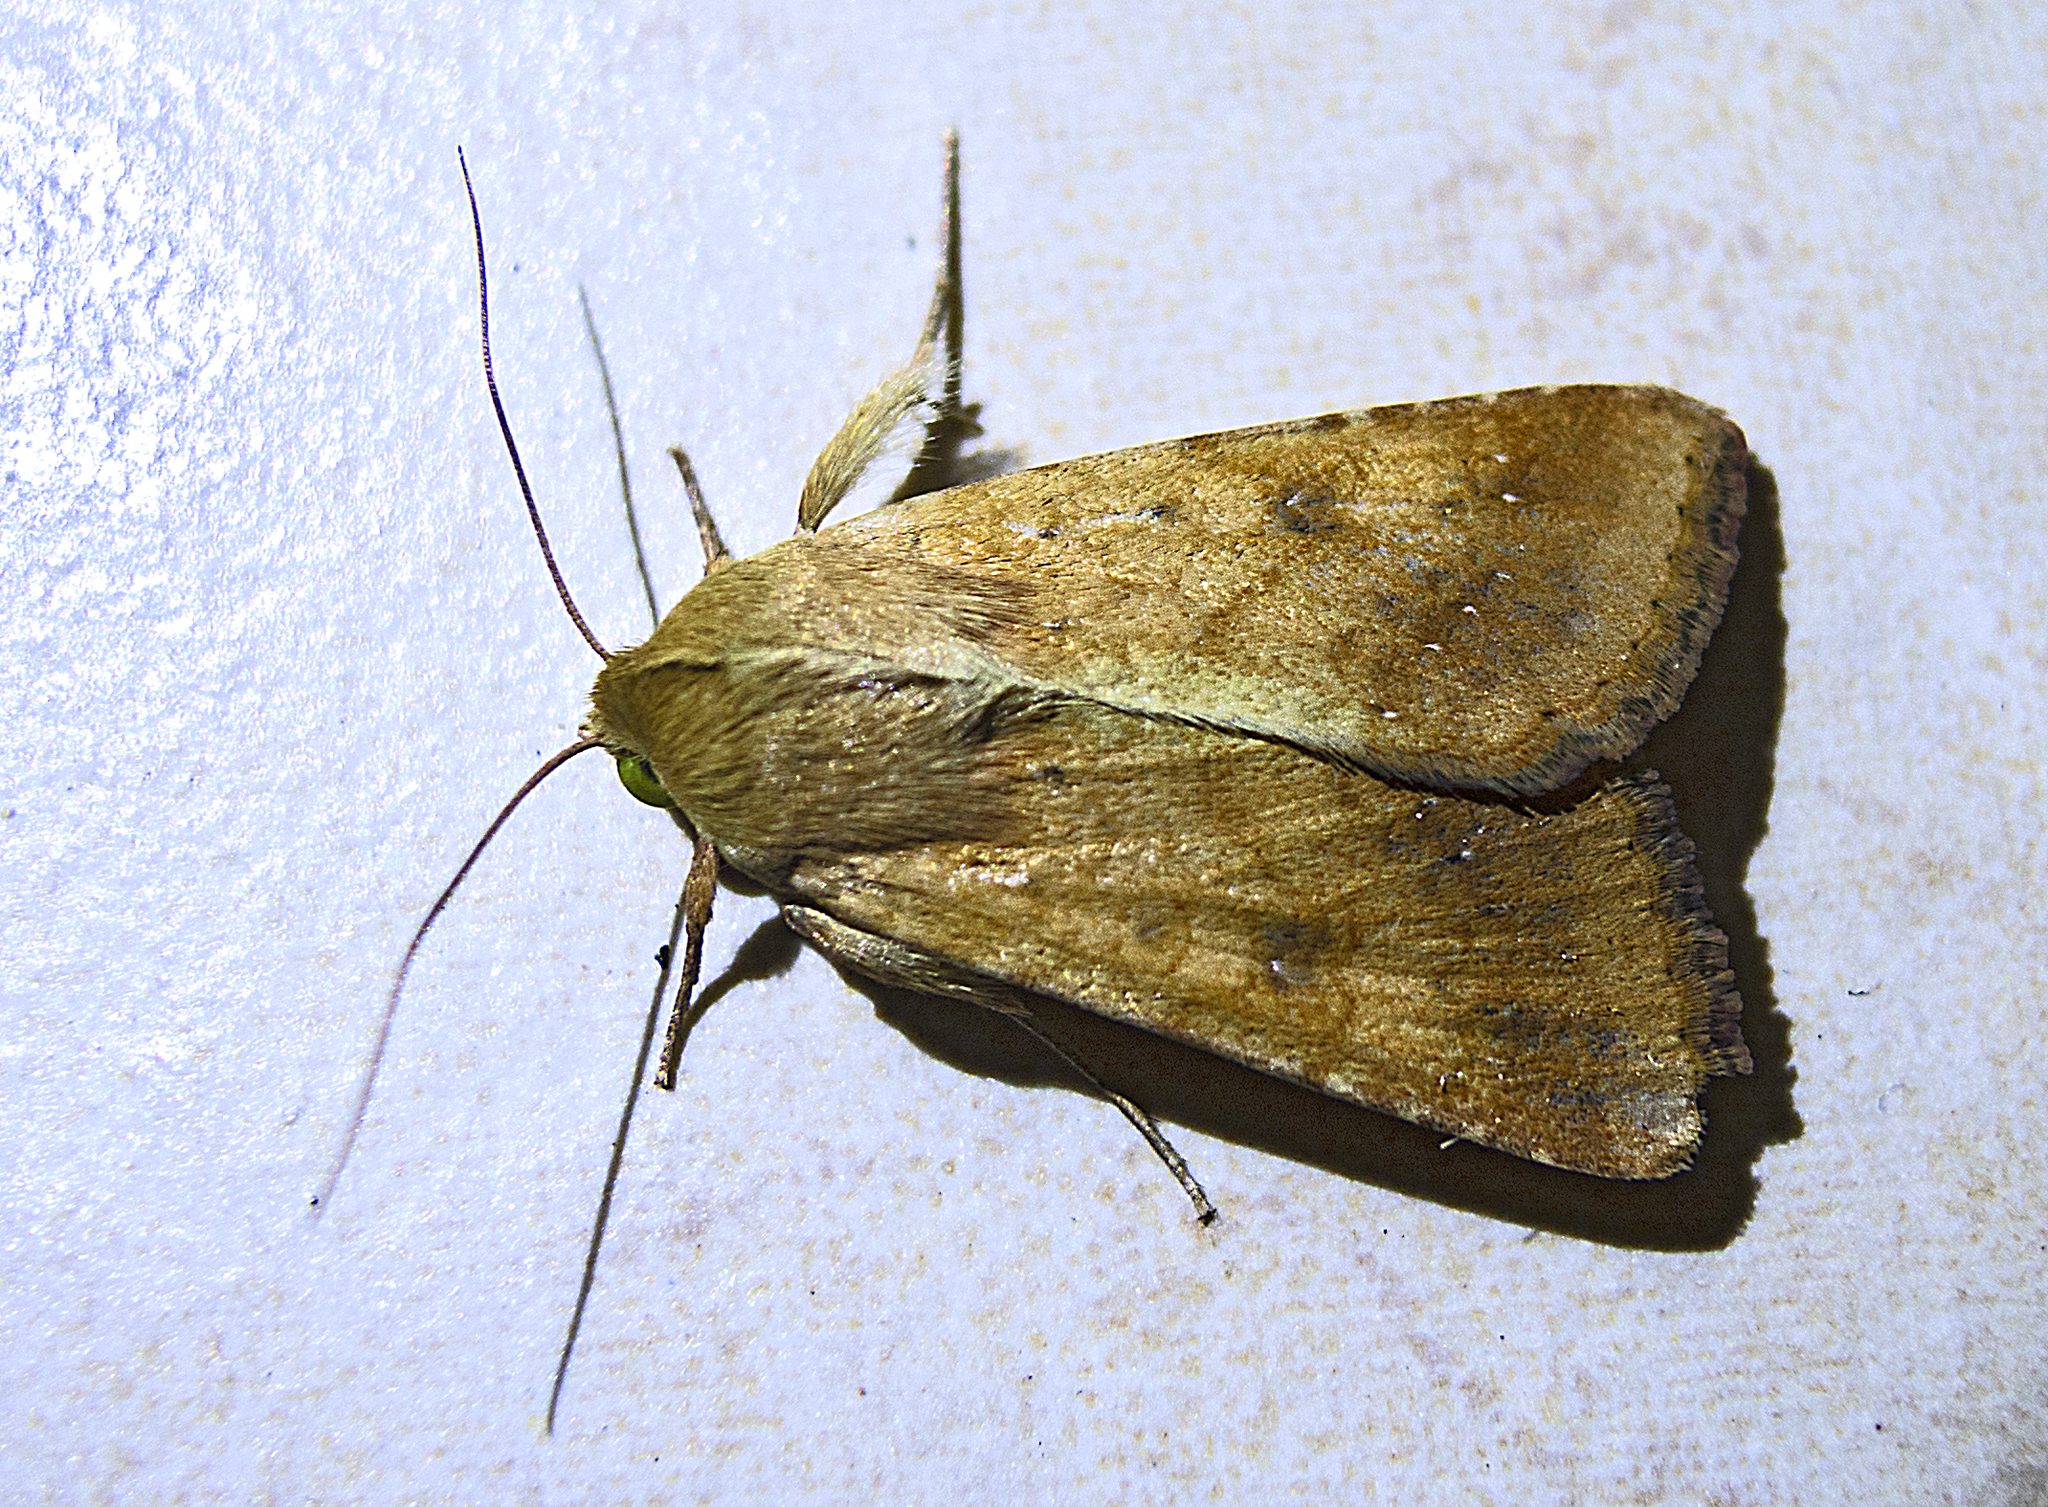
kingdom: Animalia
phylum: Arthropoda
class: Insecta
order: Lepidoptera
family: Noctuidae
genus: Helicoverpa
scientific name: Helicoverpa armigera
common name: Cotton bollworm
